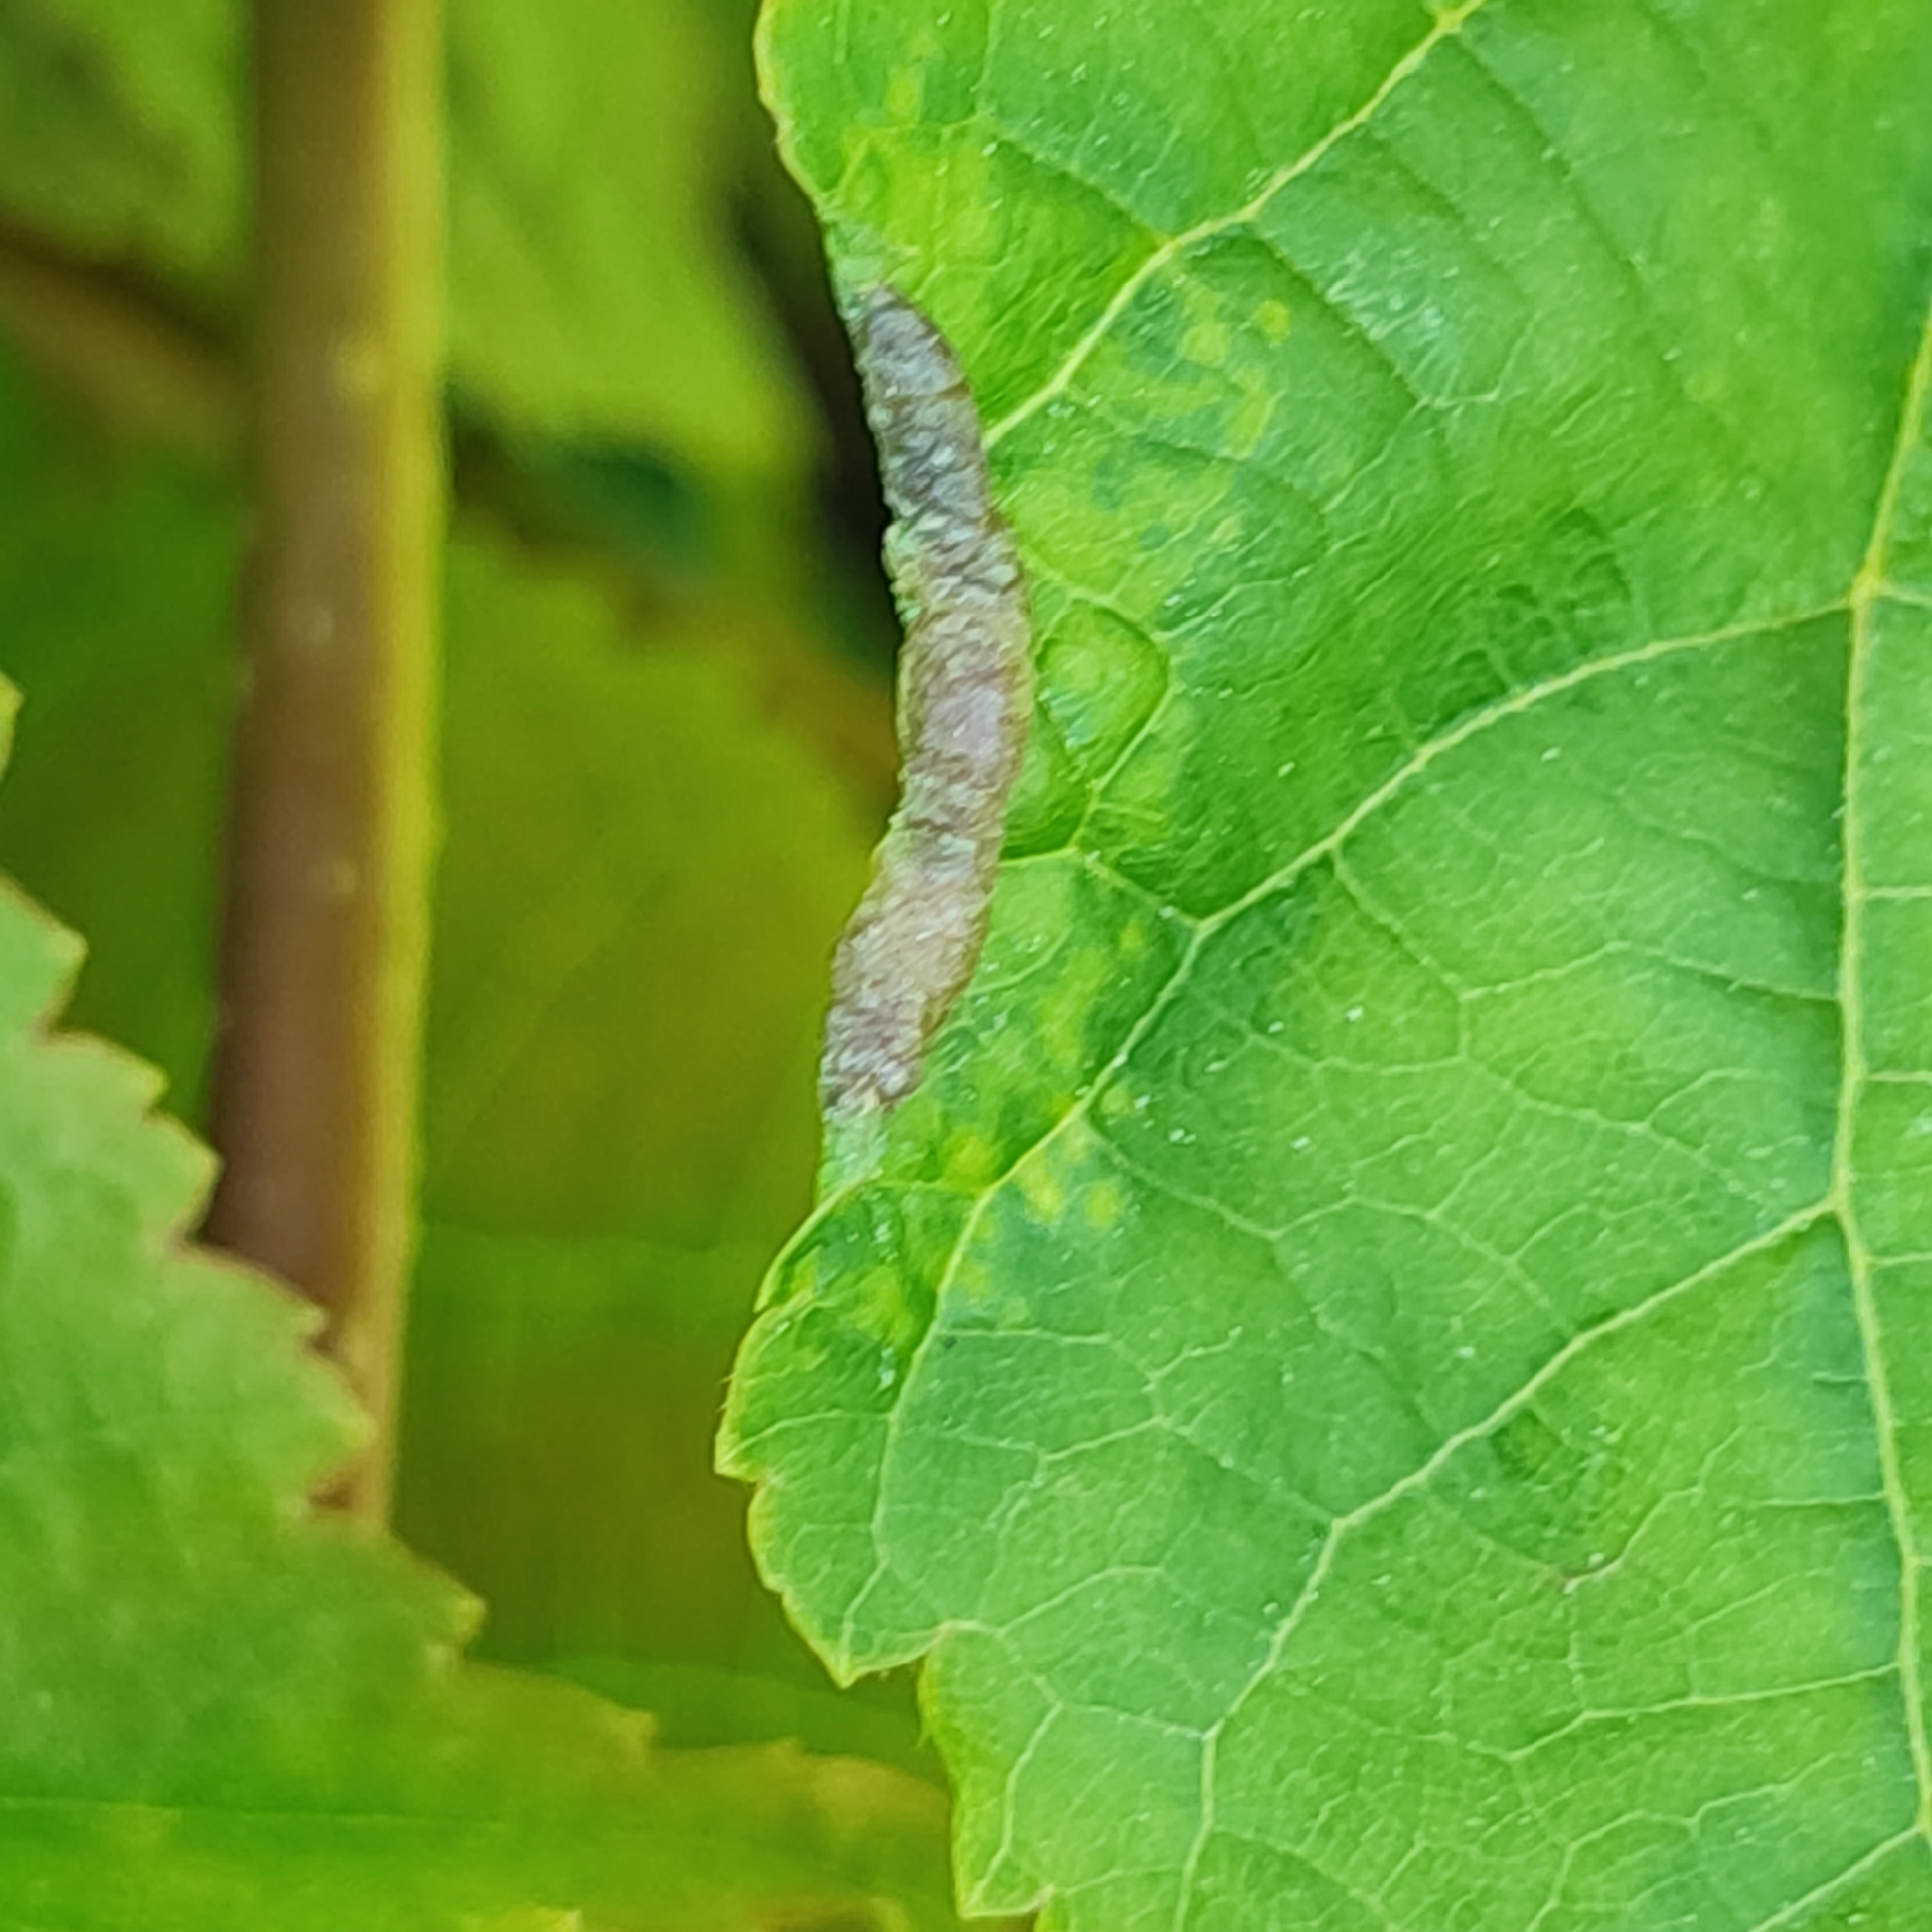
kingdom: Animalia
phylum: Arthropoda
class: Insecta
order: Diptera
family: Cecidomyiidae
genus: Dasineura
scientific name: Dasineura tiliae
